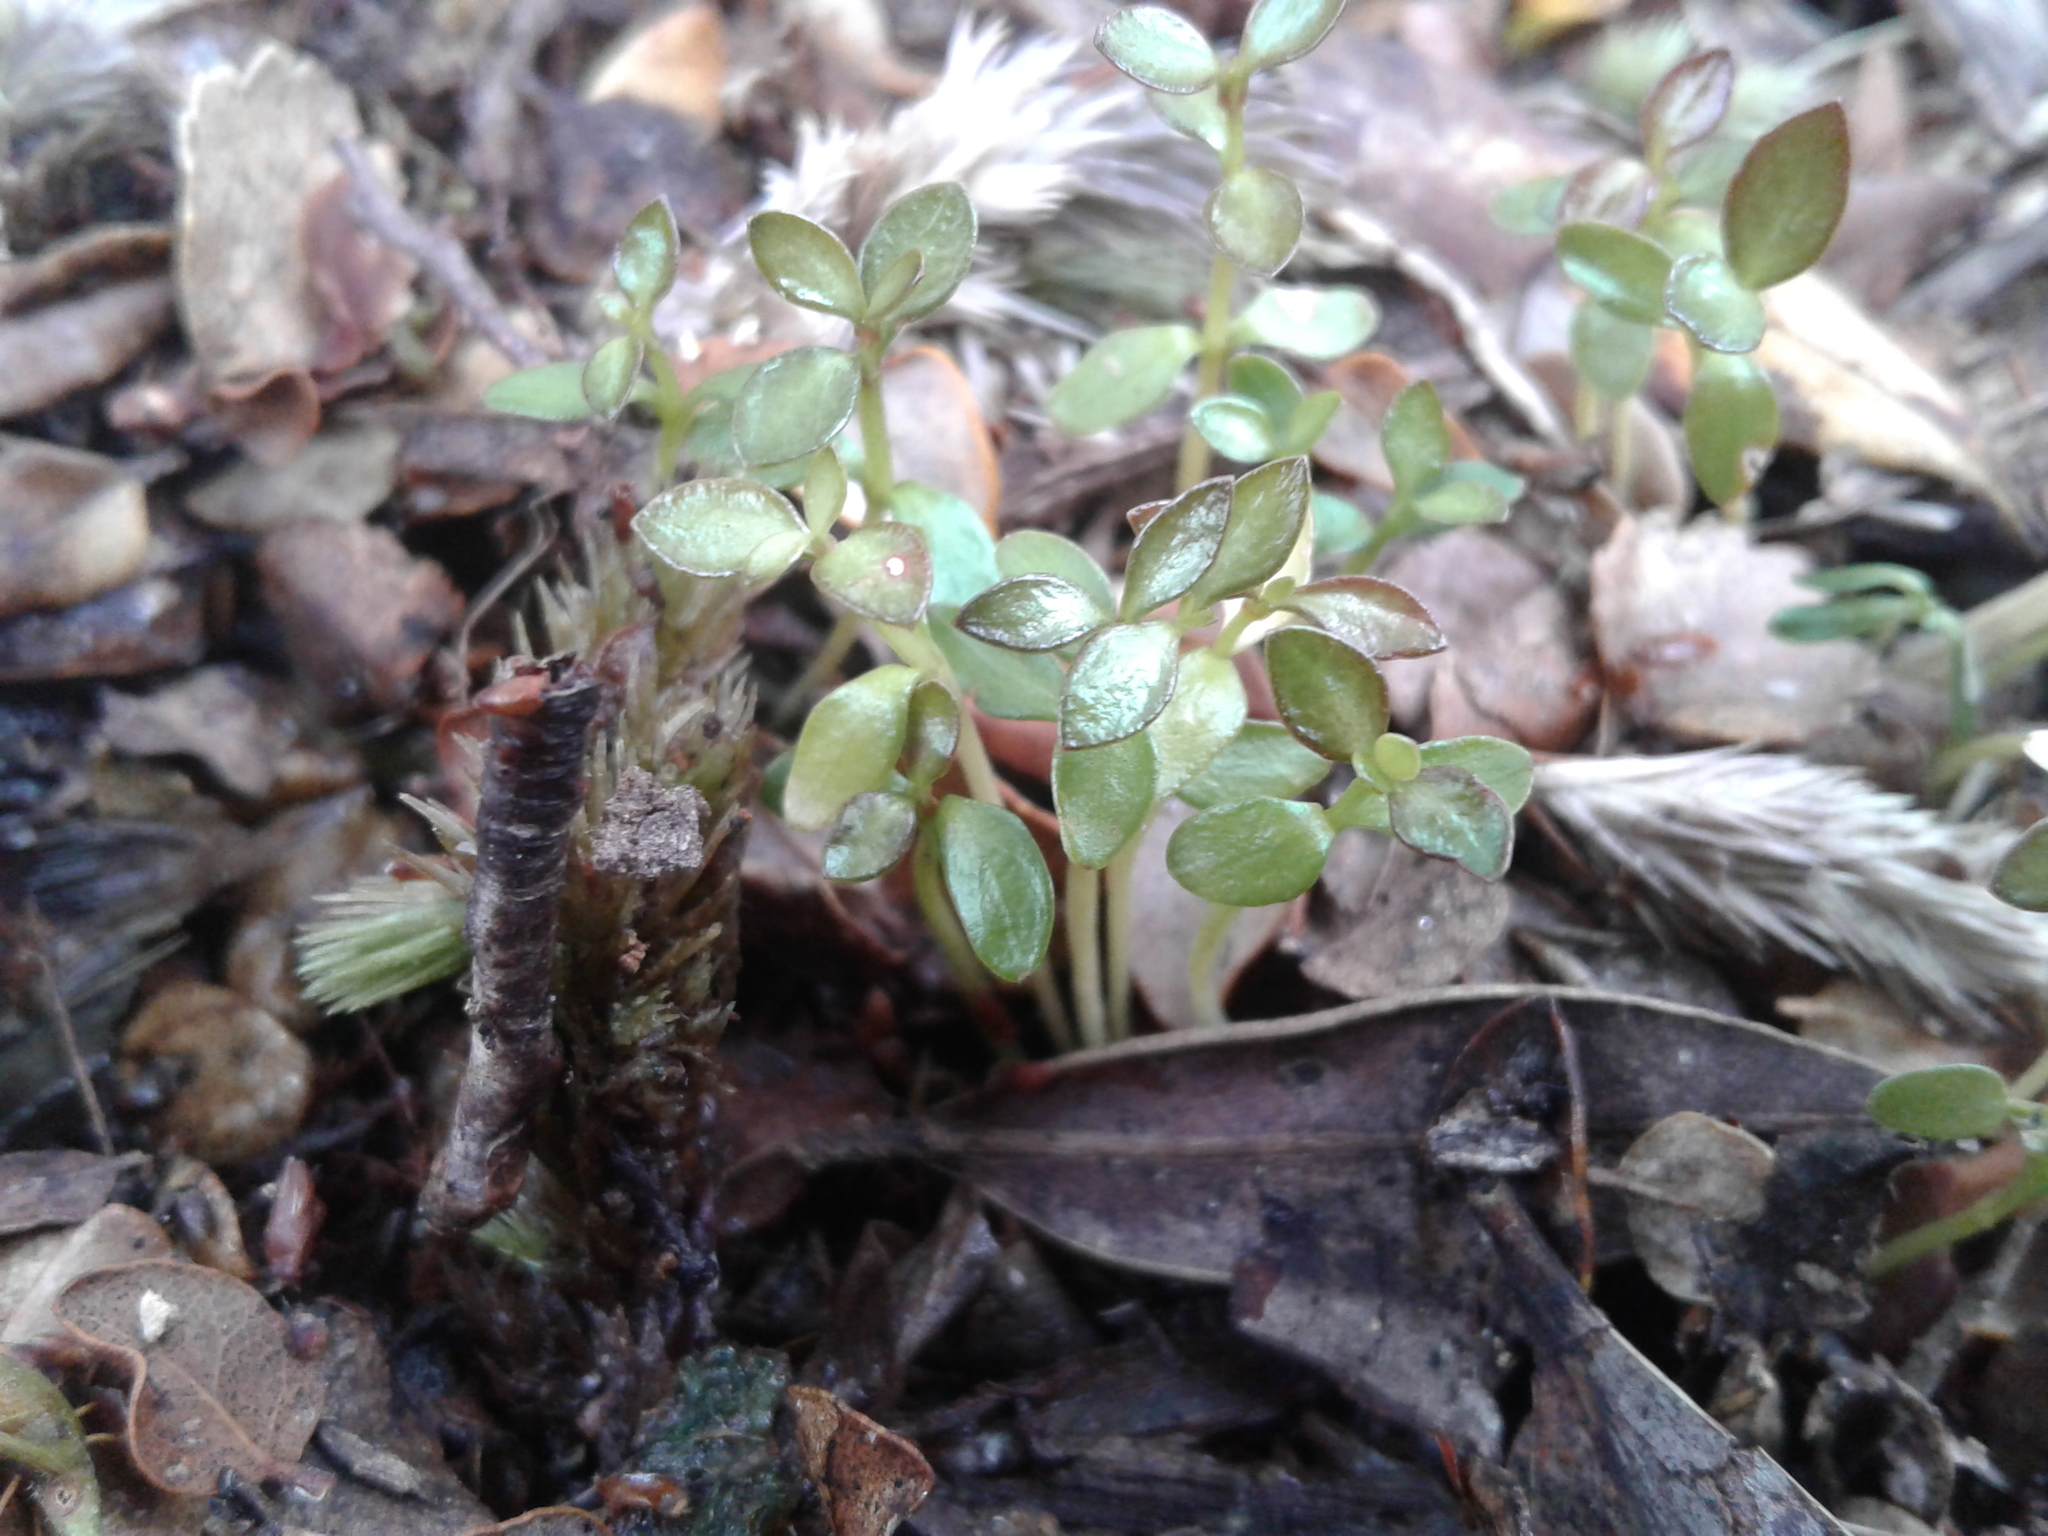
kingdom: Plantae
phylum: Tracheophyta
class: Magnoliopsida
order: Gentianales
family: Rubiaceae
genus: Coprosma
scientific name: Coprosma
